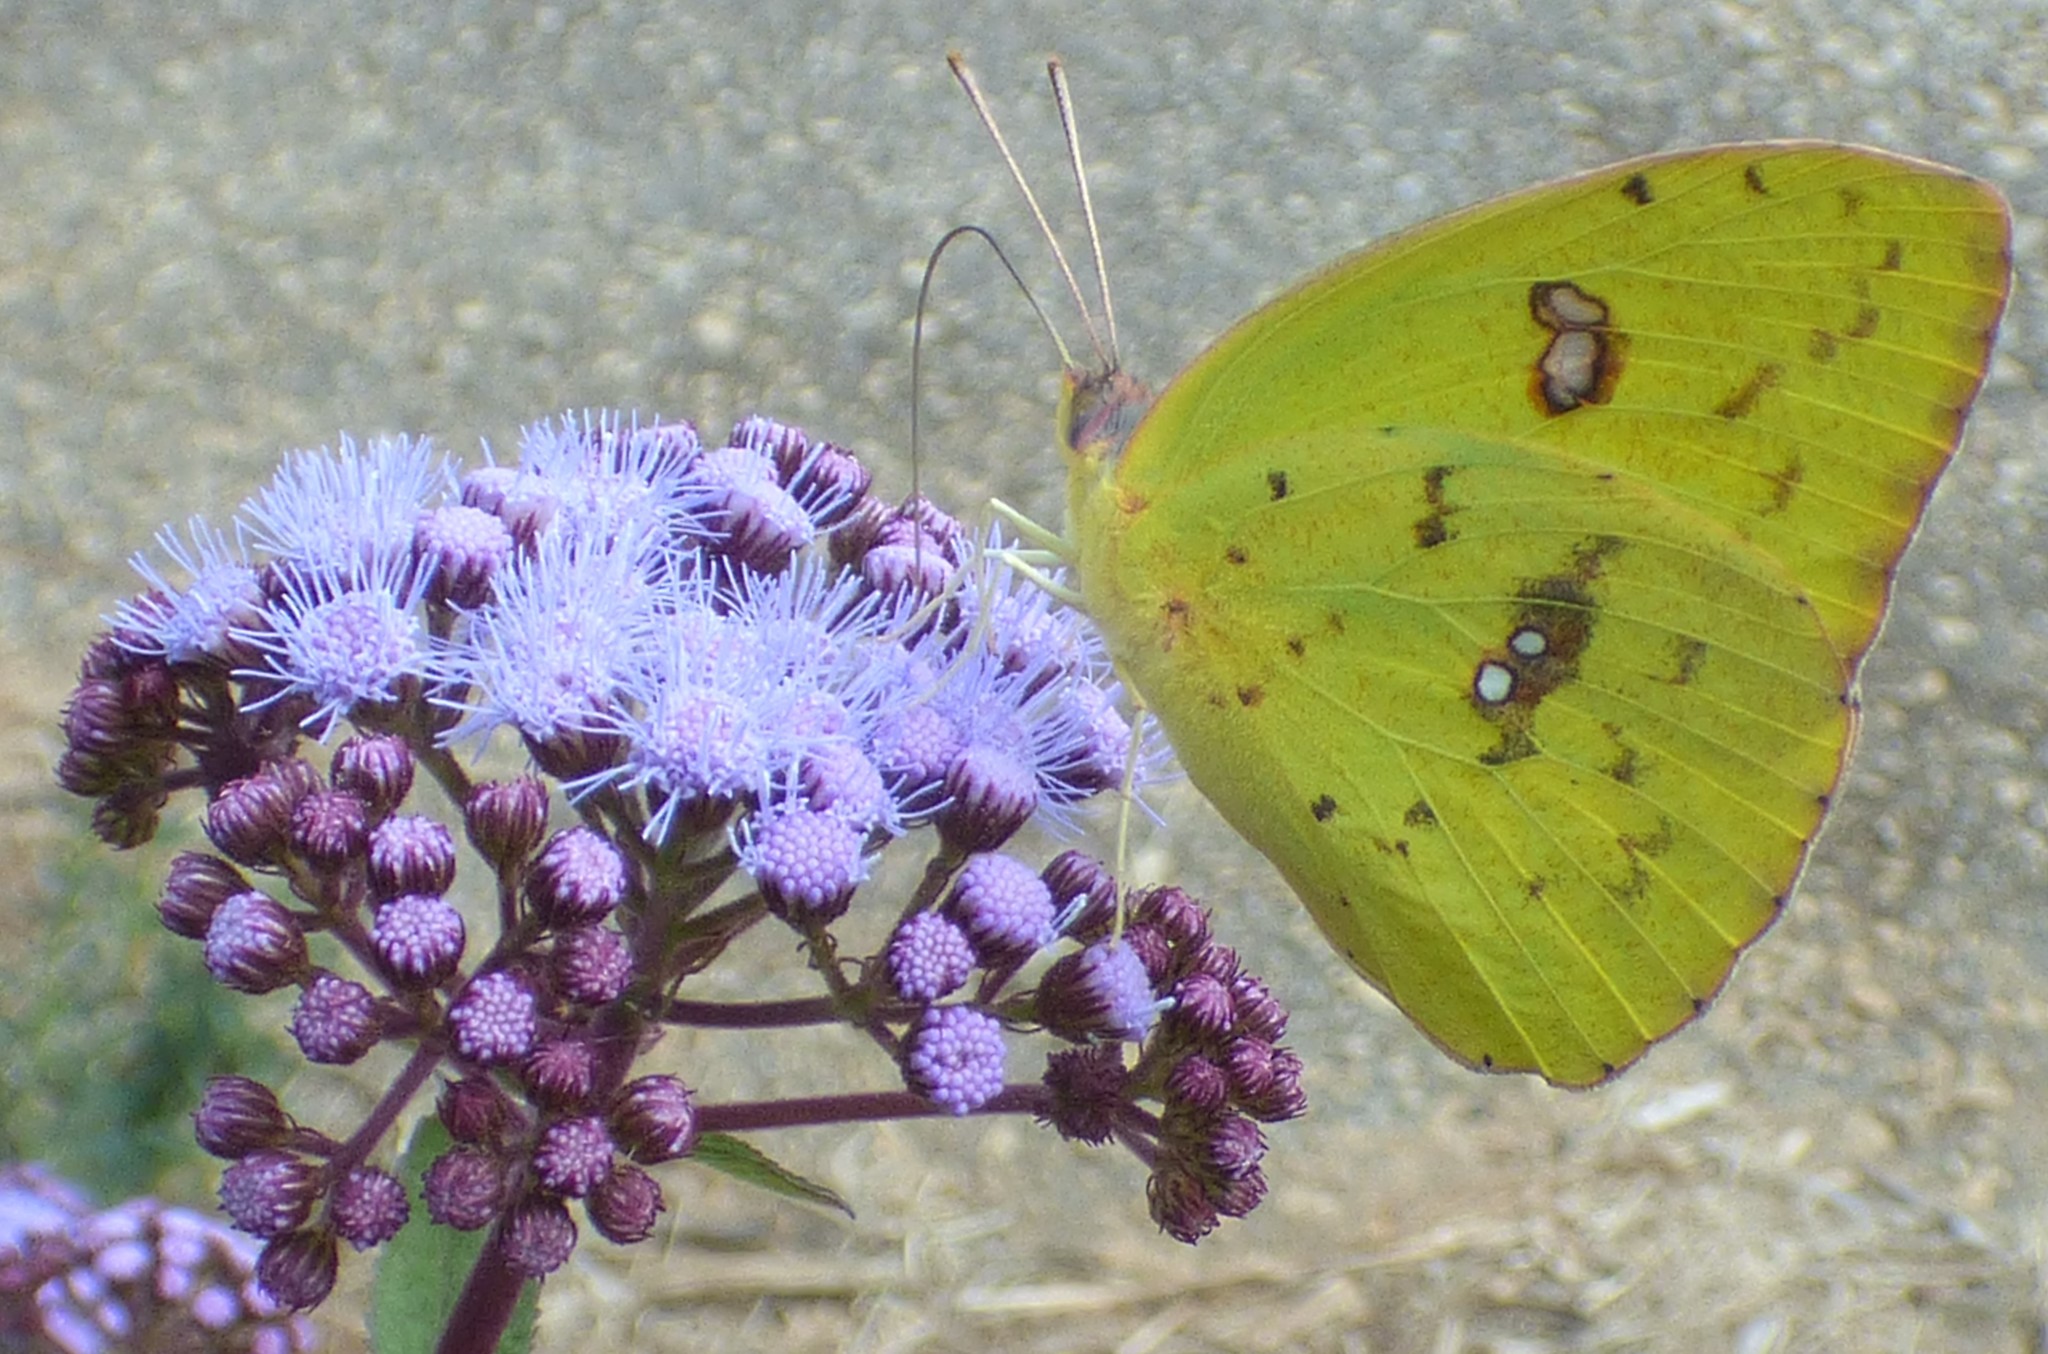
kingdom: Animalia
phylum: Arthropoda
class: Insecta
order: Lepidoptera
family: Pieridae
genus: Phoebis
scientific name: Phoebis sennae
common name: Cloudless sulphur
